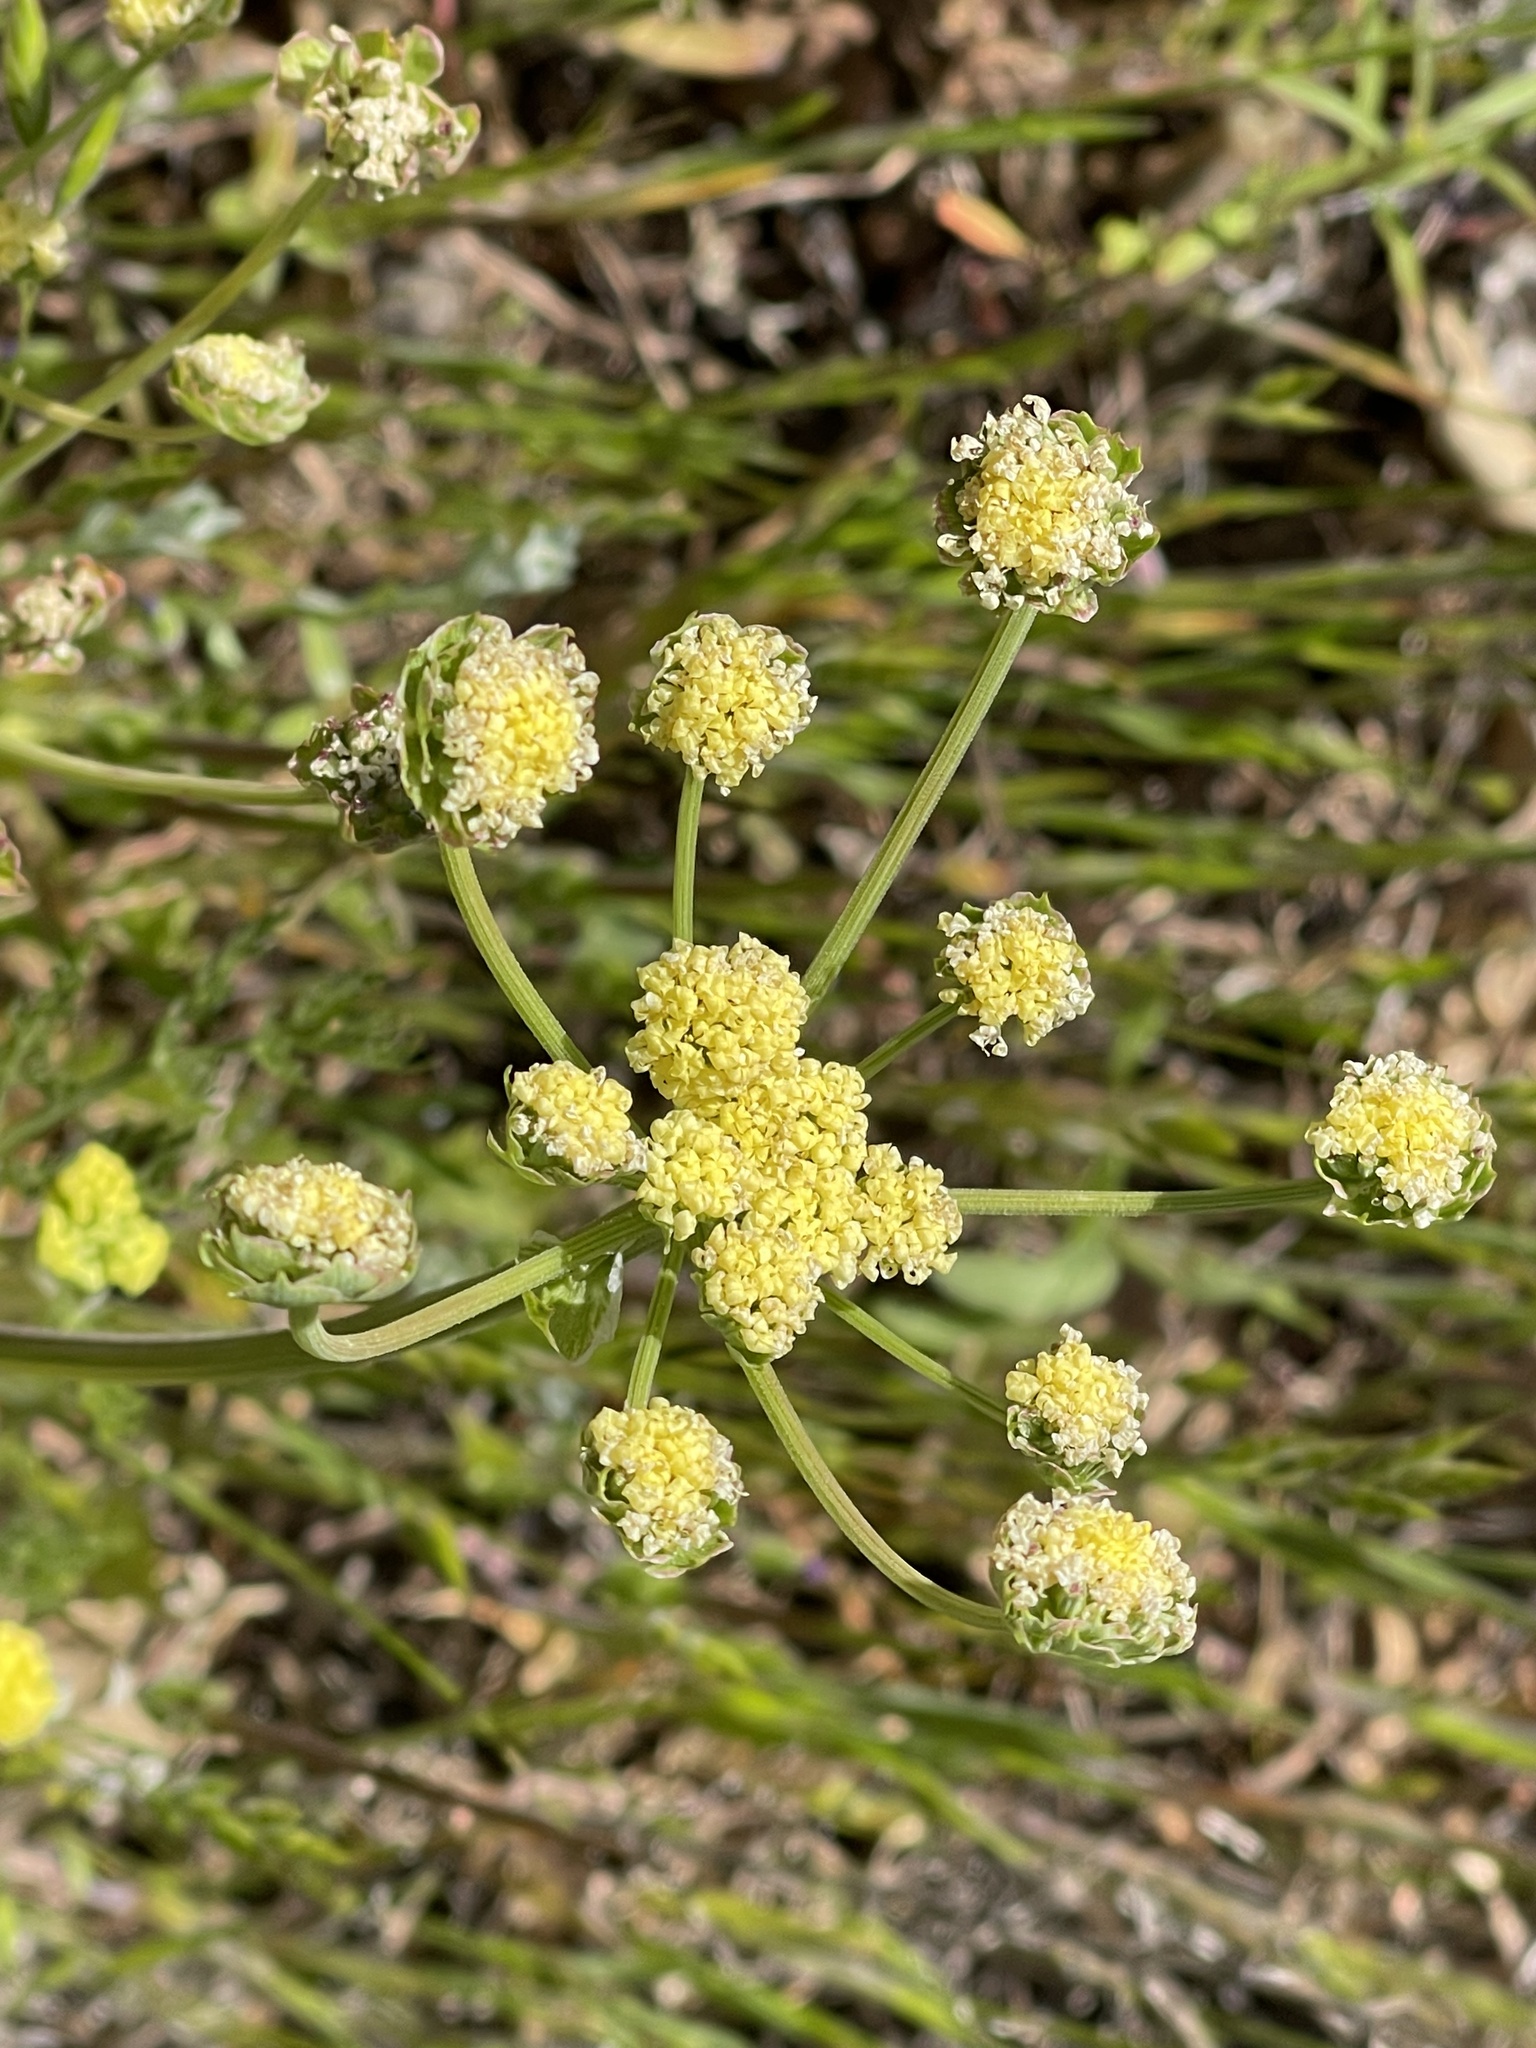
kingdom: Plantae
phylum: Tracheophyta
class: Magnoliopsida
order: Apiales
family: Apiaceae
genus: Lomatium
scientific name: Lomatium utriculatum
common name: Fine-leaf desert-parsley
